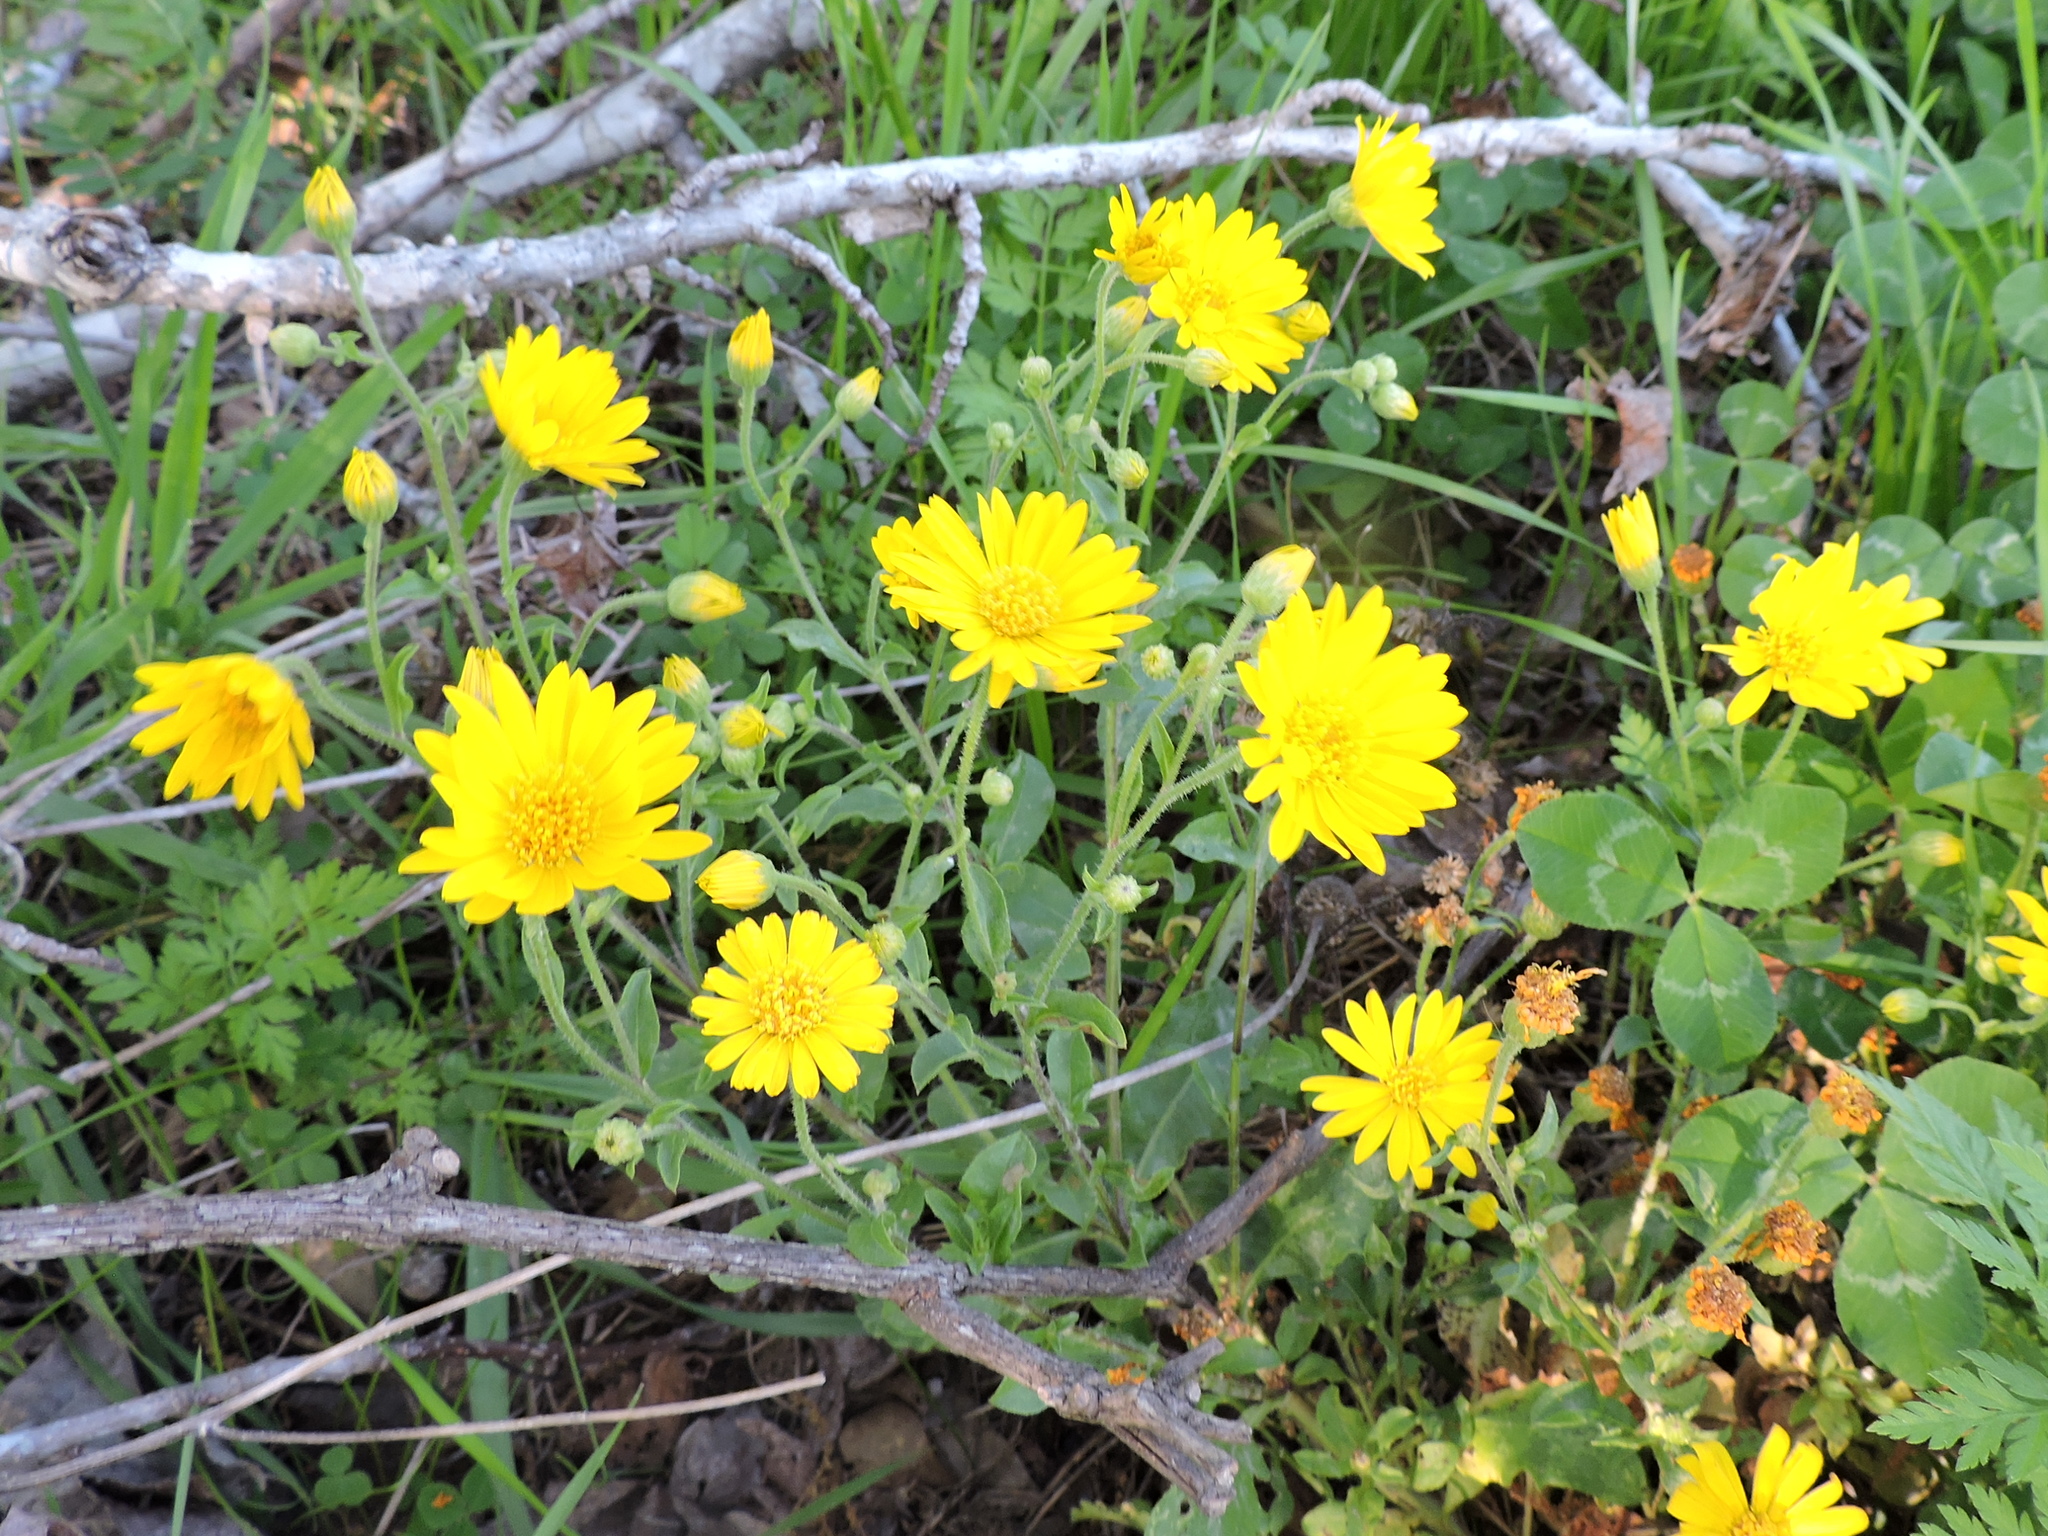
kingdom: Plantae
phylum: Tracheophyta
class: Magnoliopsida
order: Asterales
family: Asteraceae
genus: Heterotheca
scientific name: Heterotheca subaxillaris
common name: Camphorweed
